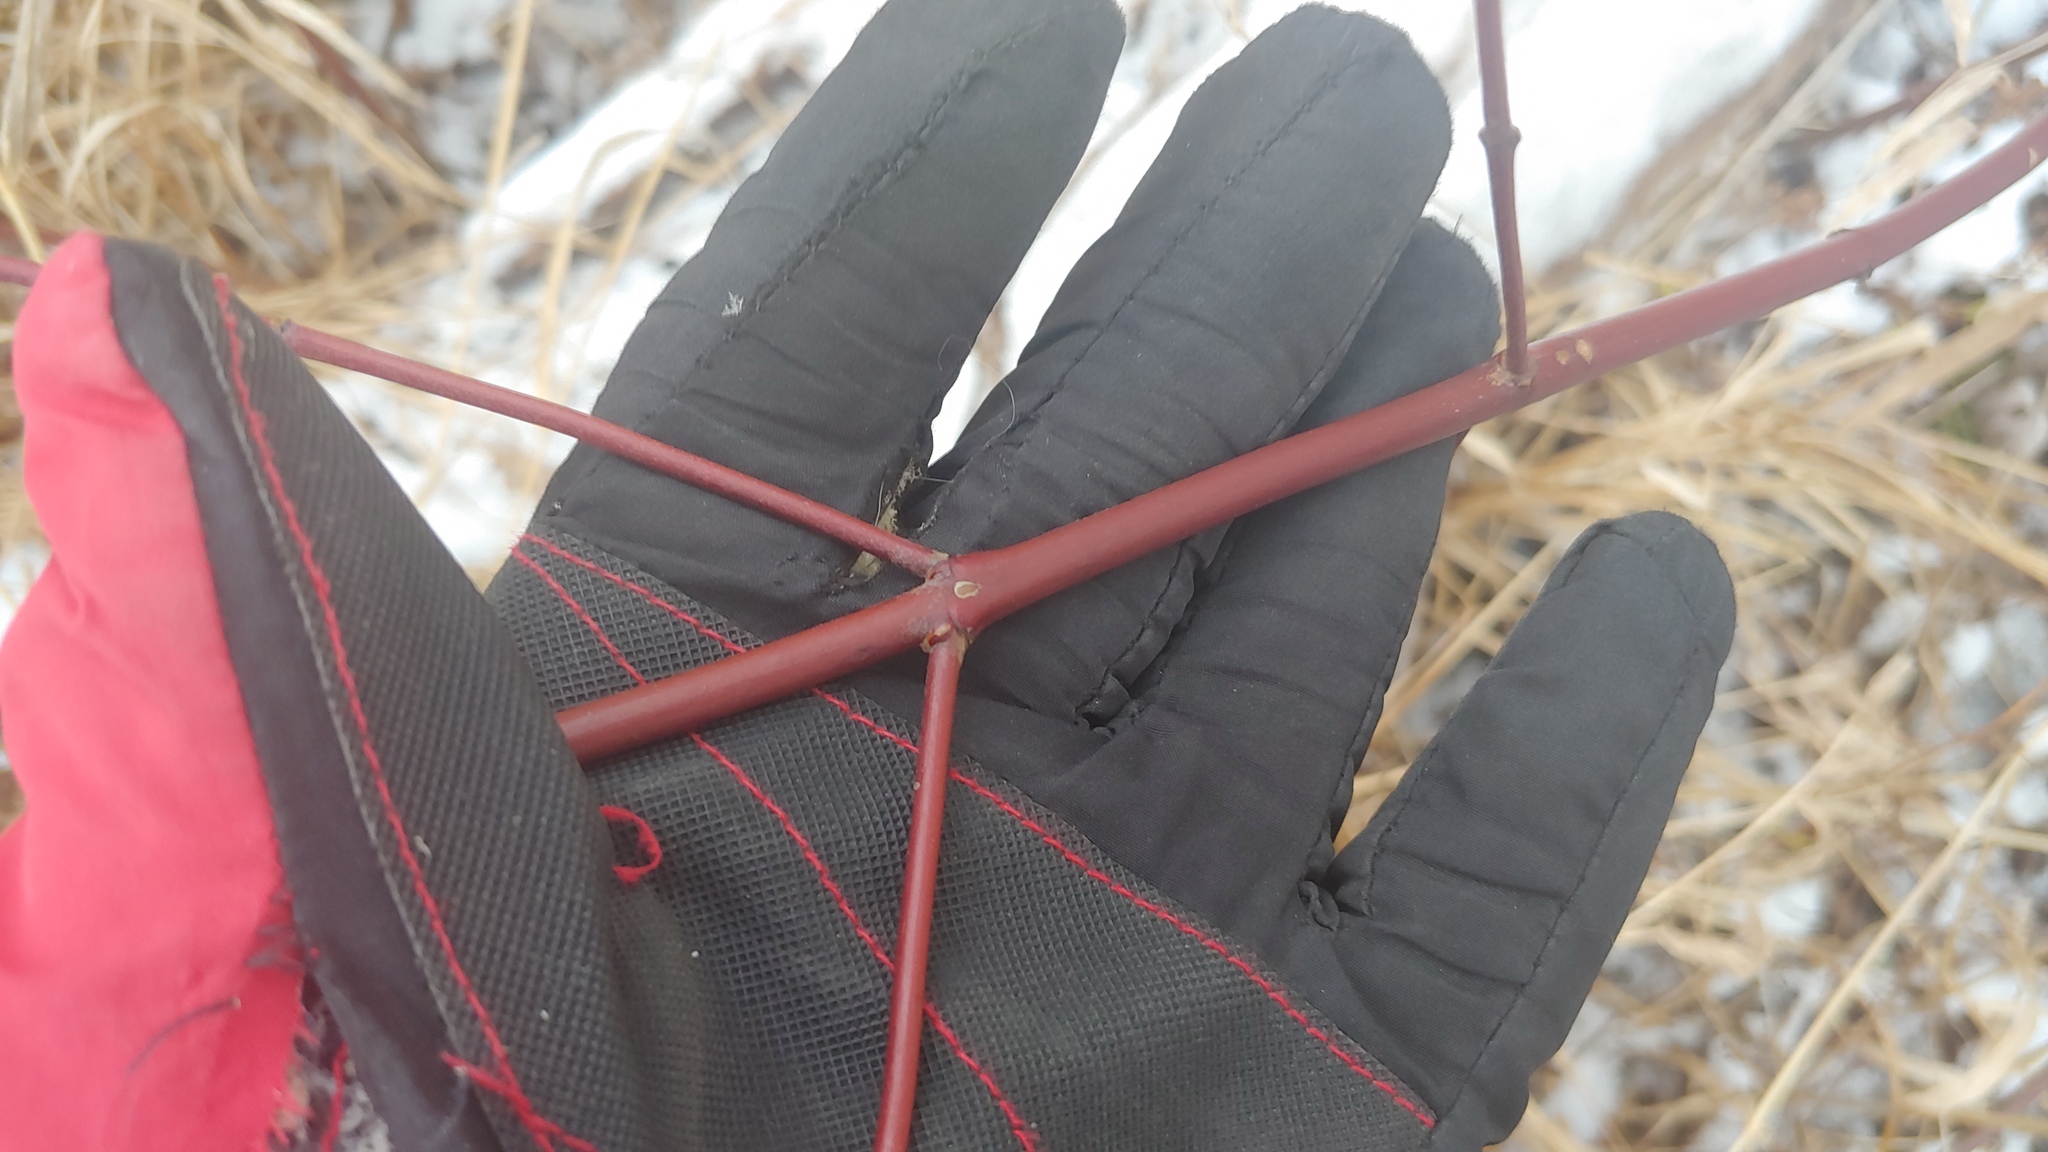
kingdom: Plantae
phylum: Tracheophyta
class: Magnoliopsida
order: Cornales
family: Cornaceae
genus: Cornus
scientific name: Cornus sericea
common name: Red-osier dogwood
